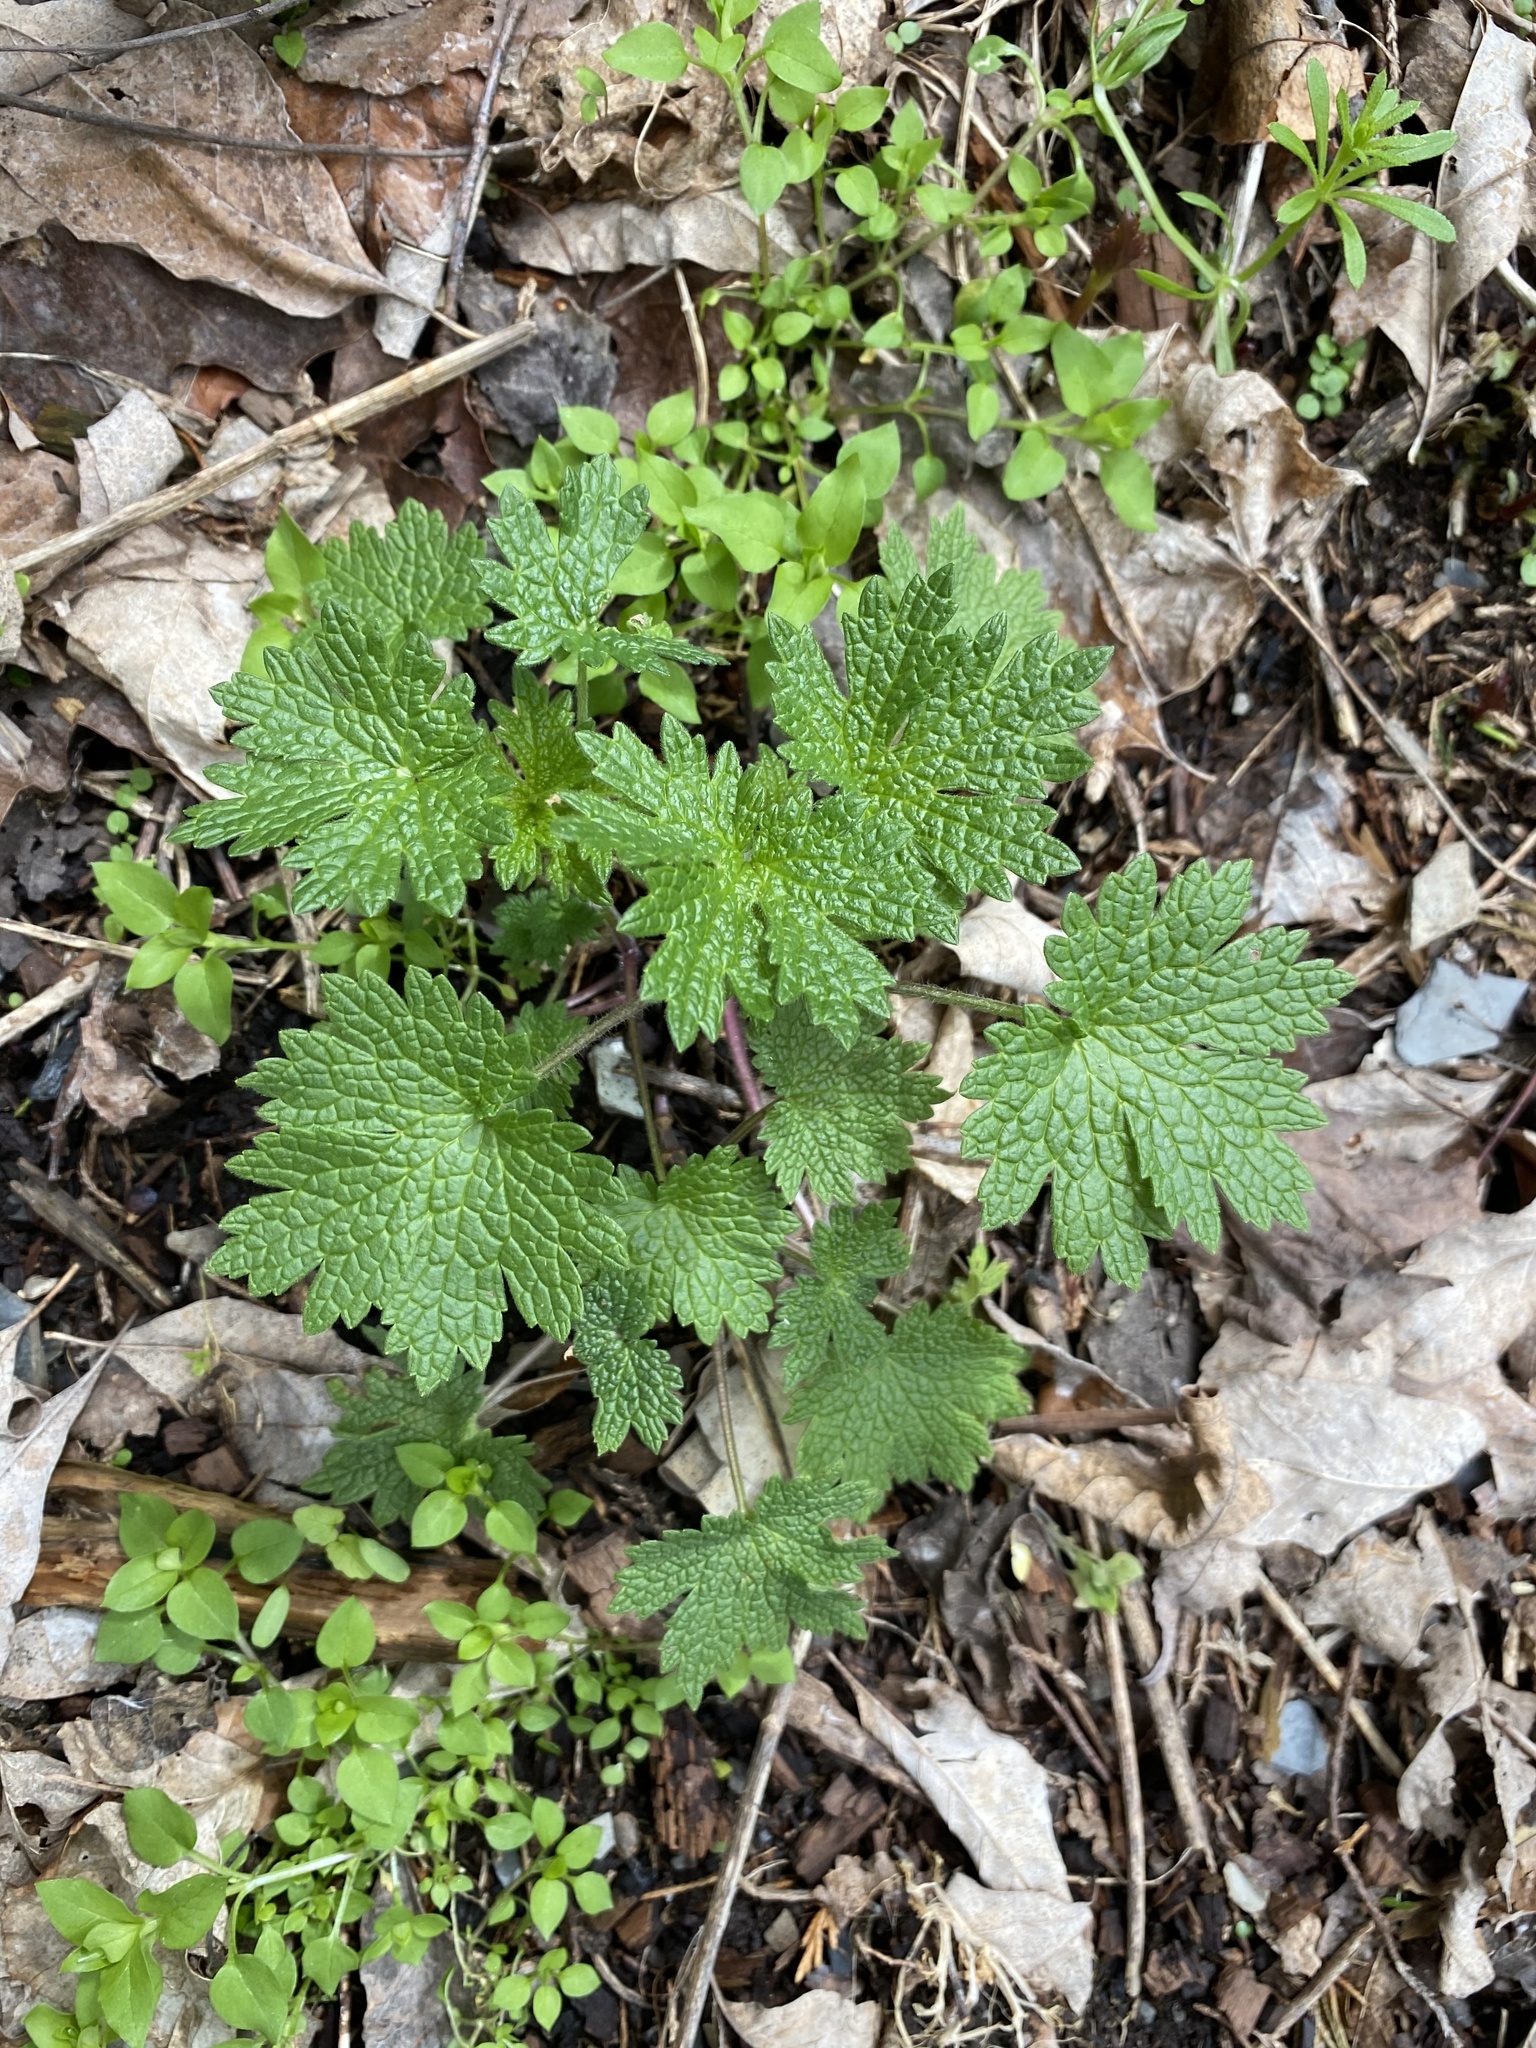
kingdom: Plantae
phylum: Tracheophyta
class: Magnoliopsida
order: Lamiales
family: Lamiaceae
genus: Leonurus
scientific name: Leonurus cardiaca
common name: Motherwort
